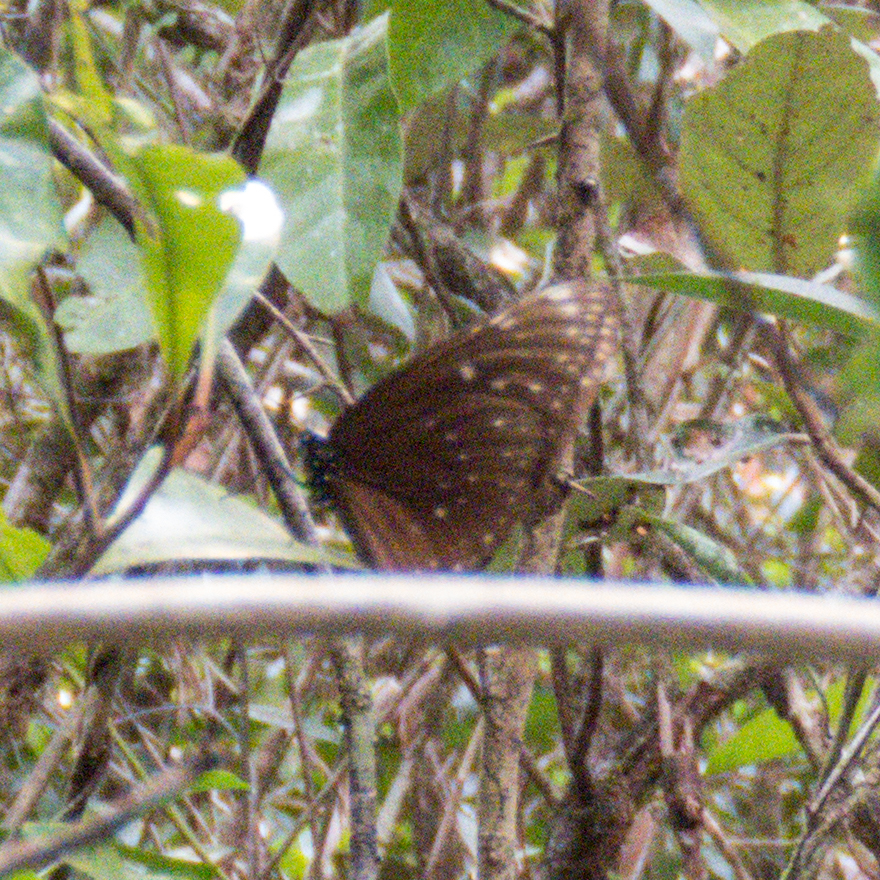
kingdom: Animalia
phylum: Arthropoda
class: Insecta
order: Lepidoptera
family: Nymphalidae
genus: Euploea
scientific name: Euploea phaenareta
